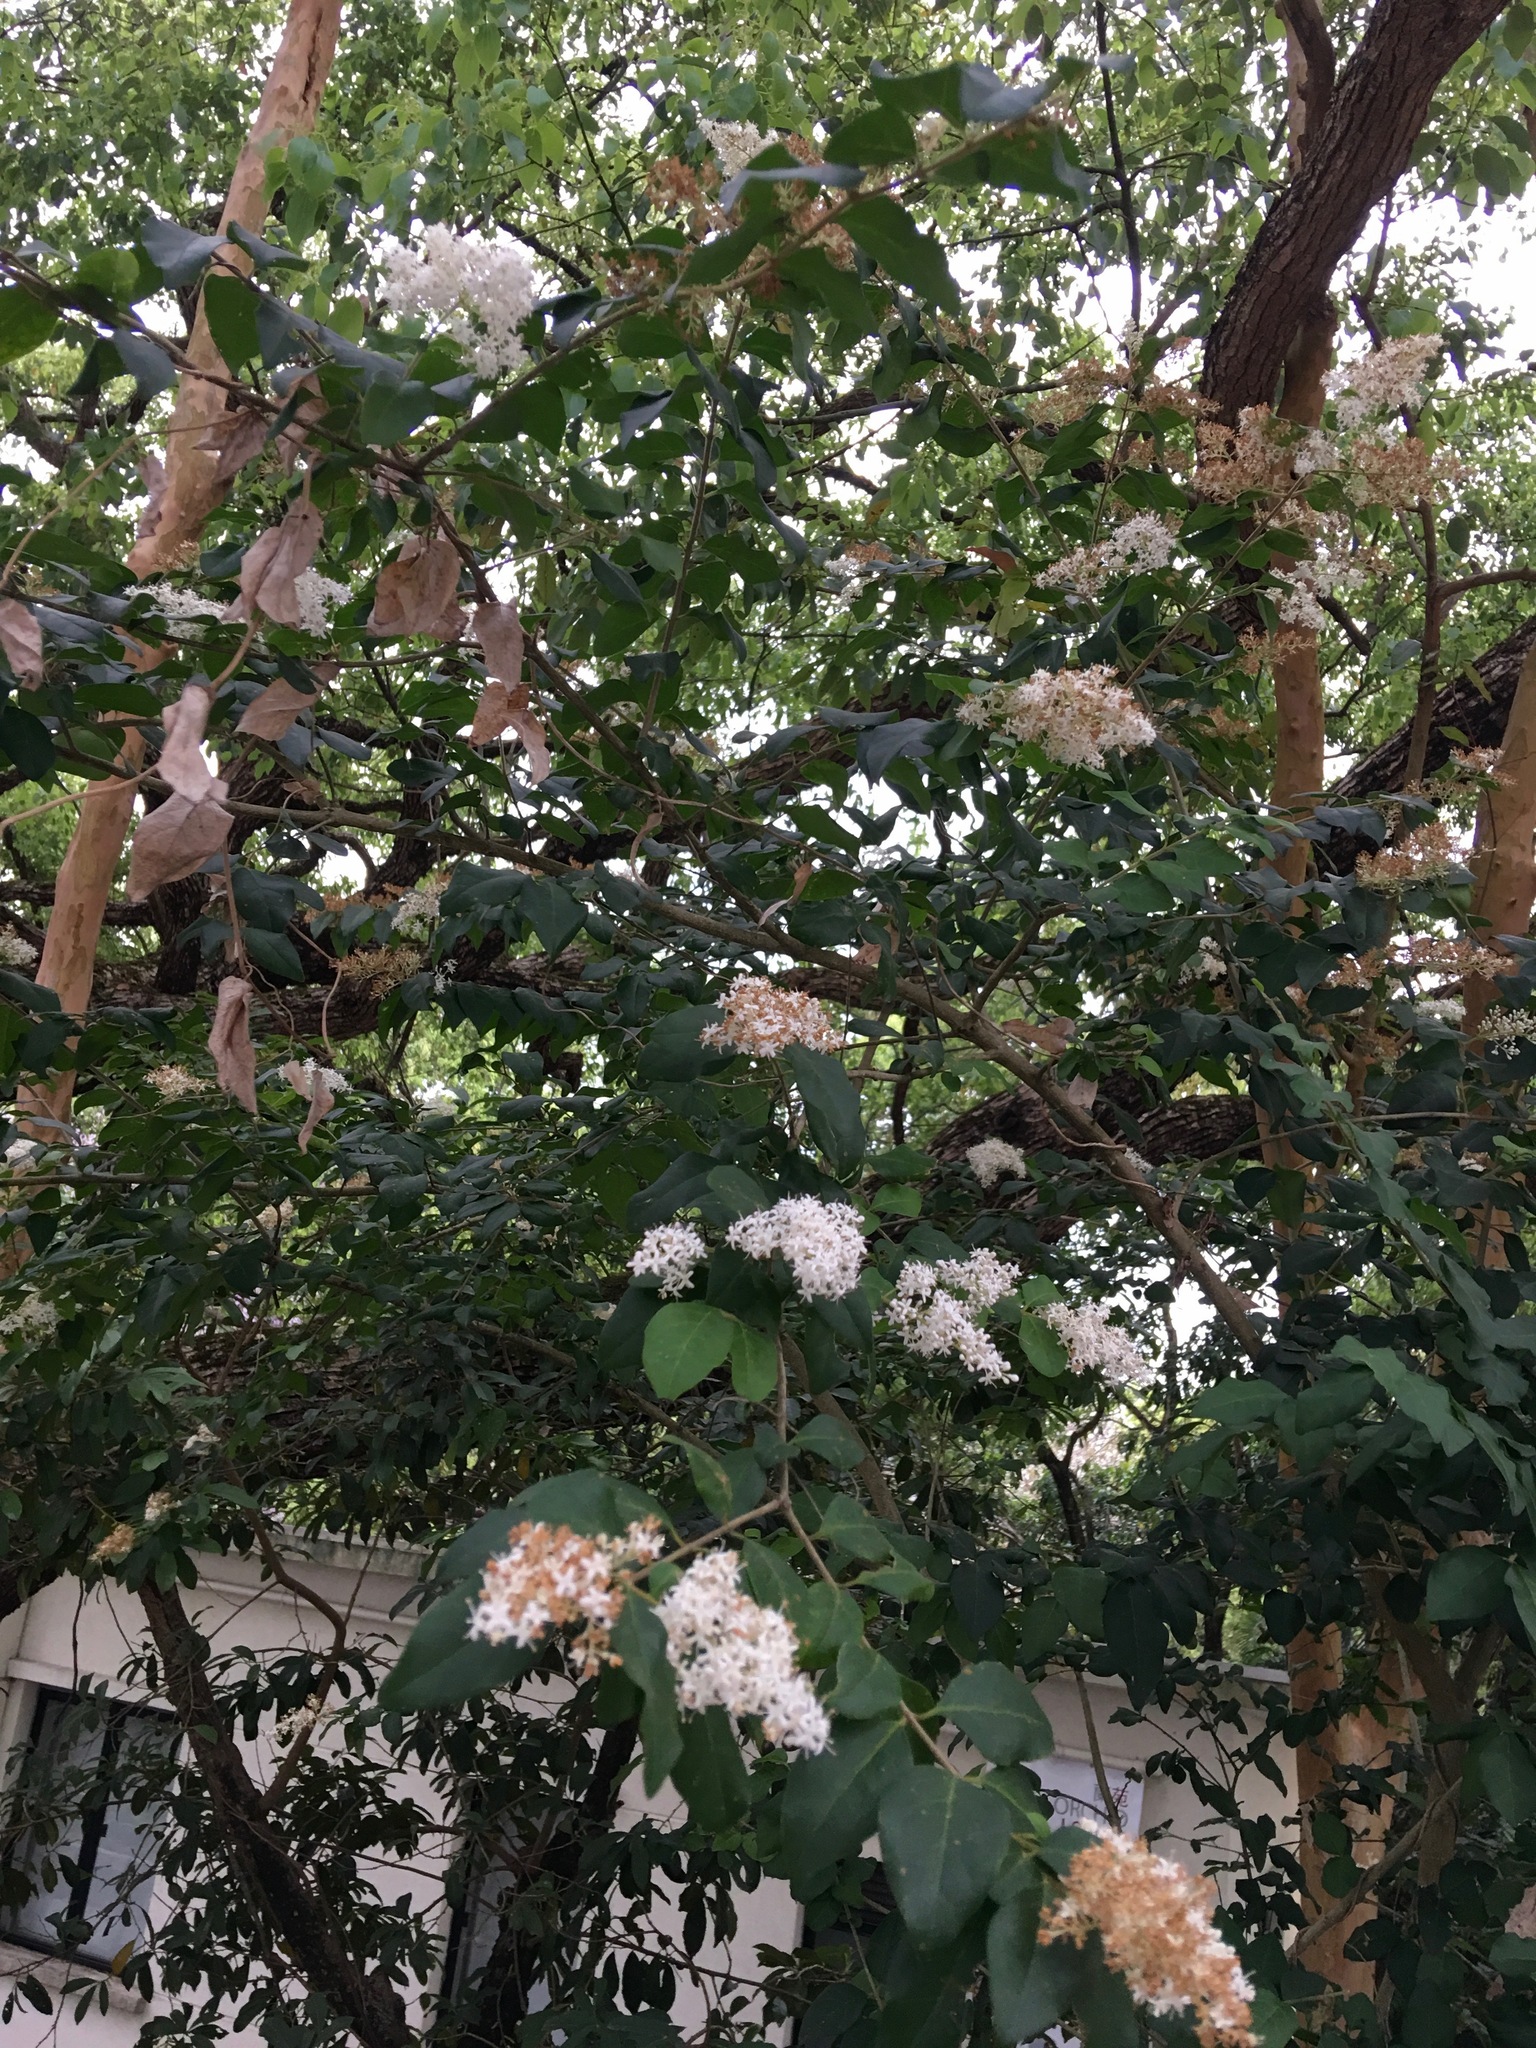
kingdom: Plantae
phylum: Tracheophyta
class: Magnoliopsida
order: Lamiales
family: Oleaceae
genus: Ligustrum
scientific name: Ligustrum sinense
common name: Chinese privet
